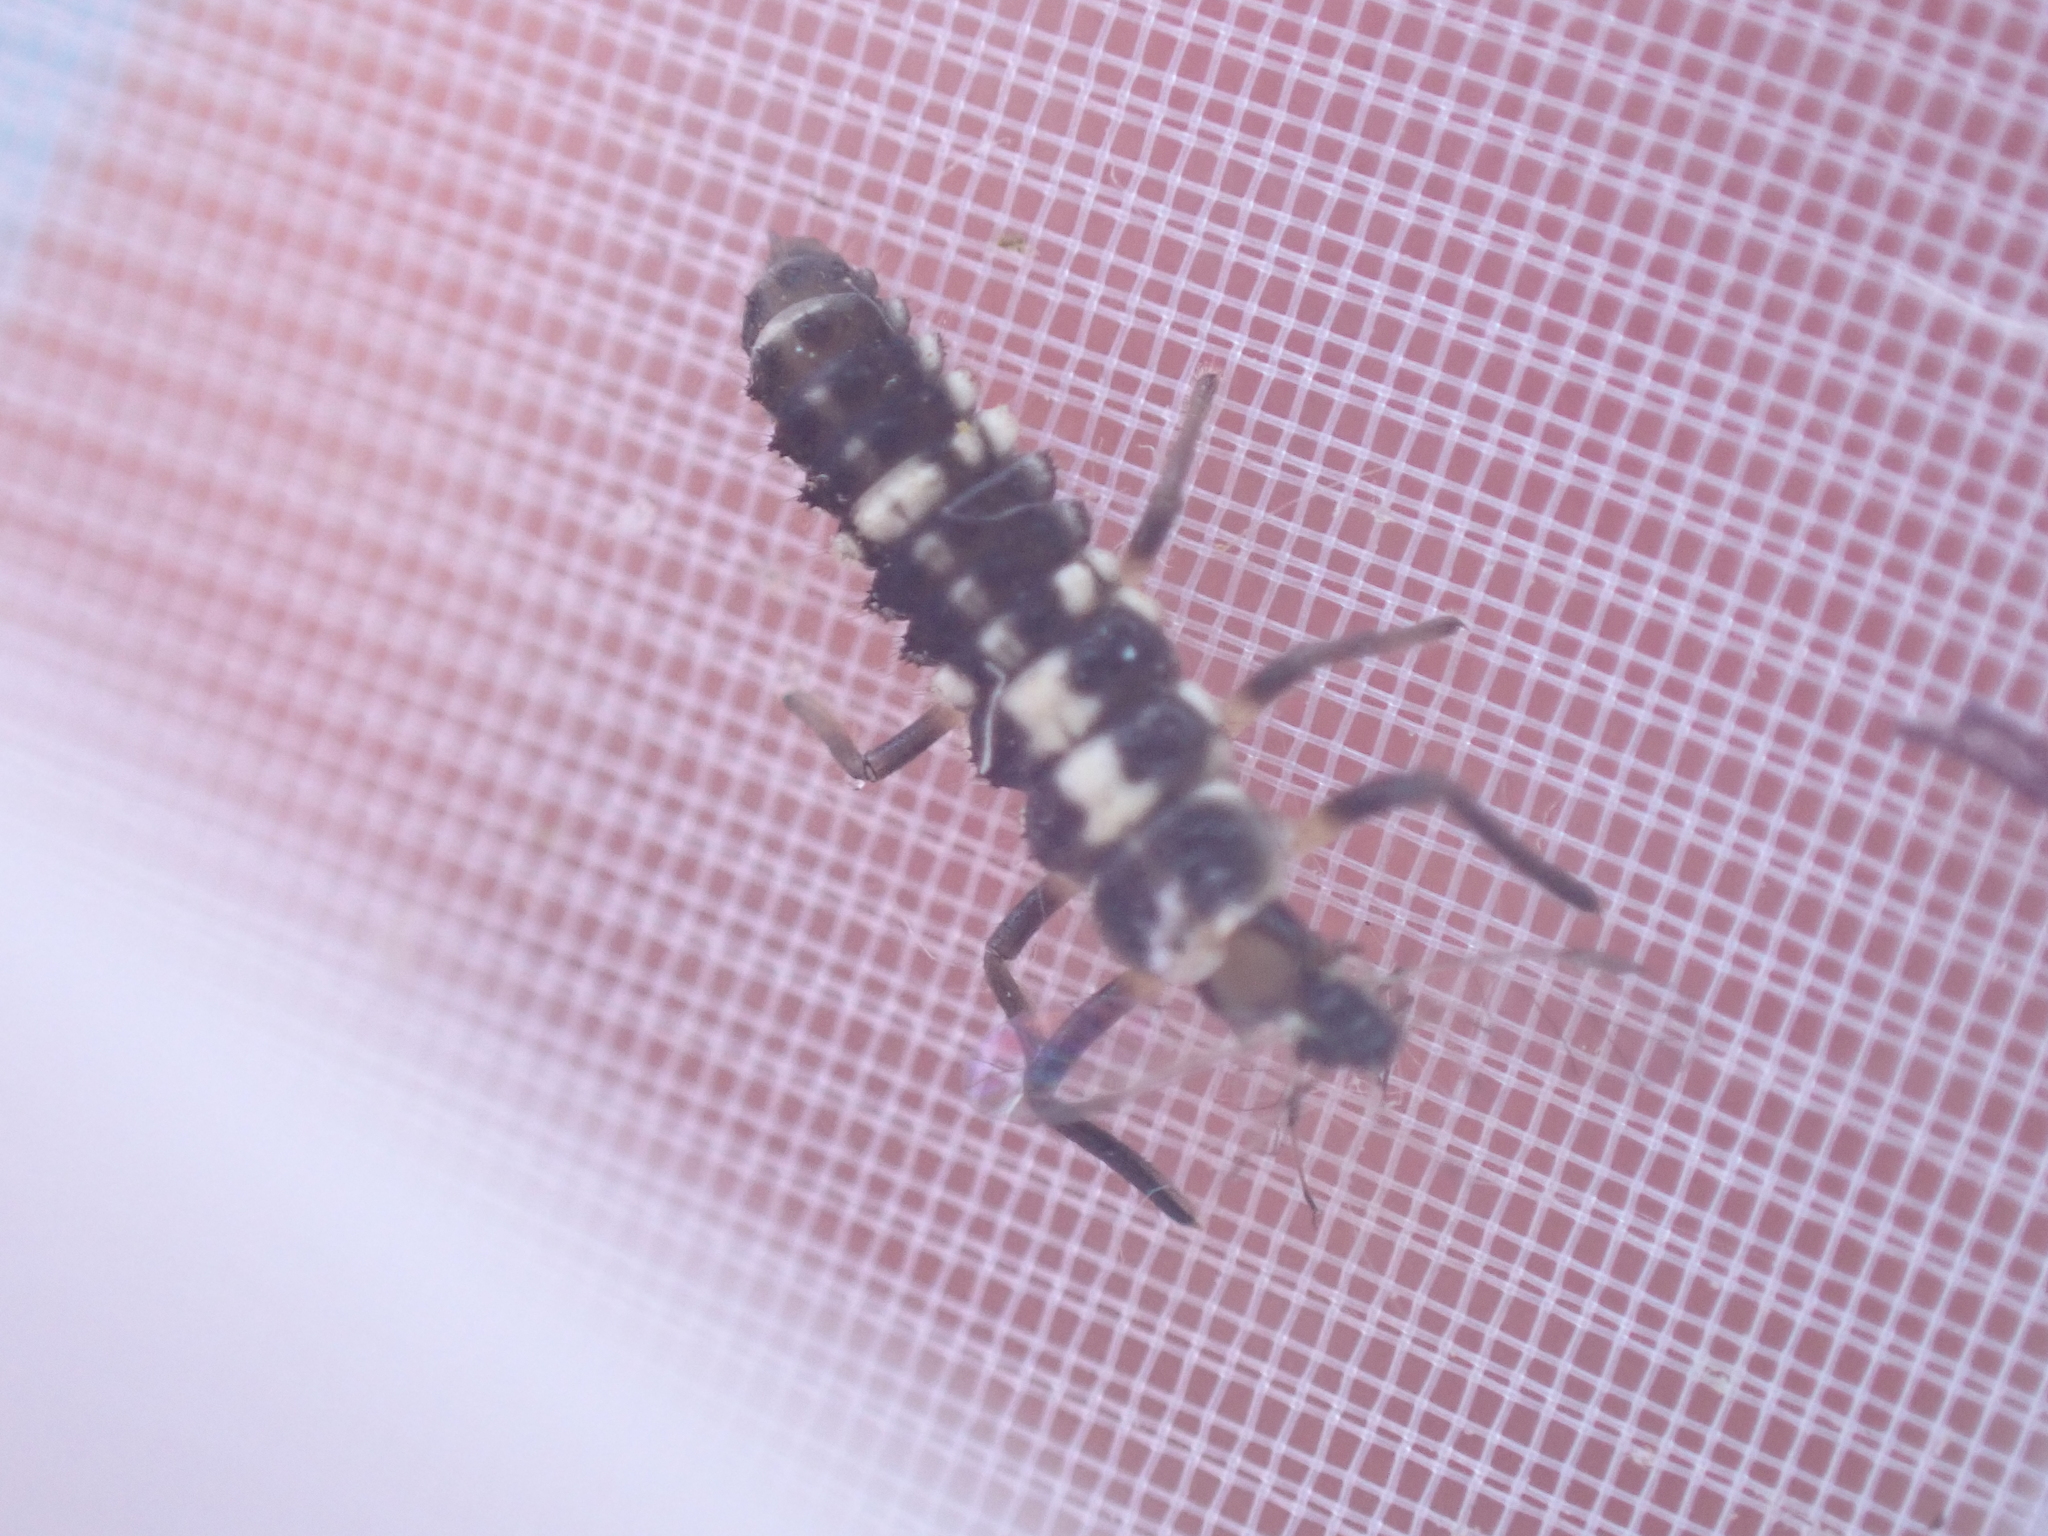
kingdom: Animalia
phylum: Arthropoda
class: Insecta
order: Coleoptera
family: Coccinellidae
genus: Propylaea
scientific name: Propylaea quatuordecimpunctata
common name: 14-spotted ladybird beetle
